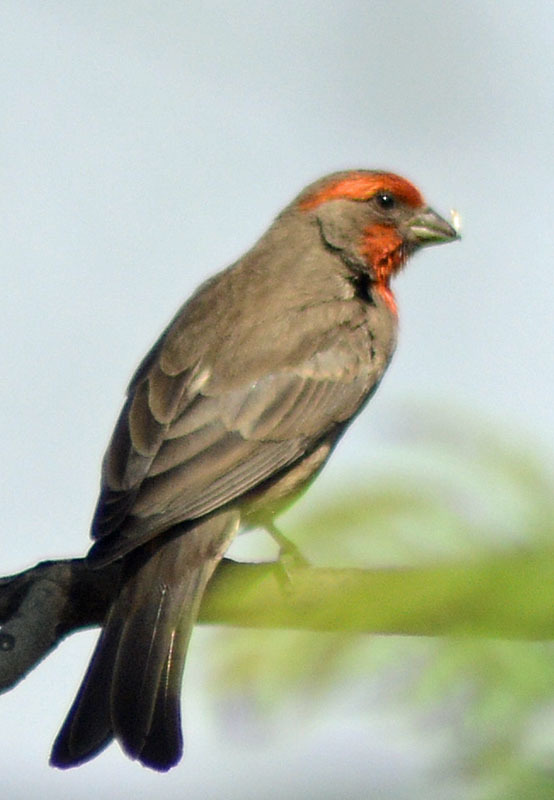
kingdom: Animalia
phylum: Chordata
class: Aves
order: Passeriformes
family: Fringillidae
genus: Haemorhous
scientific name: Haemorhous mexicanus
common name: House finch
